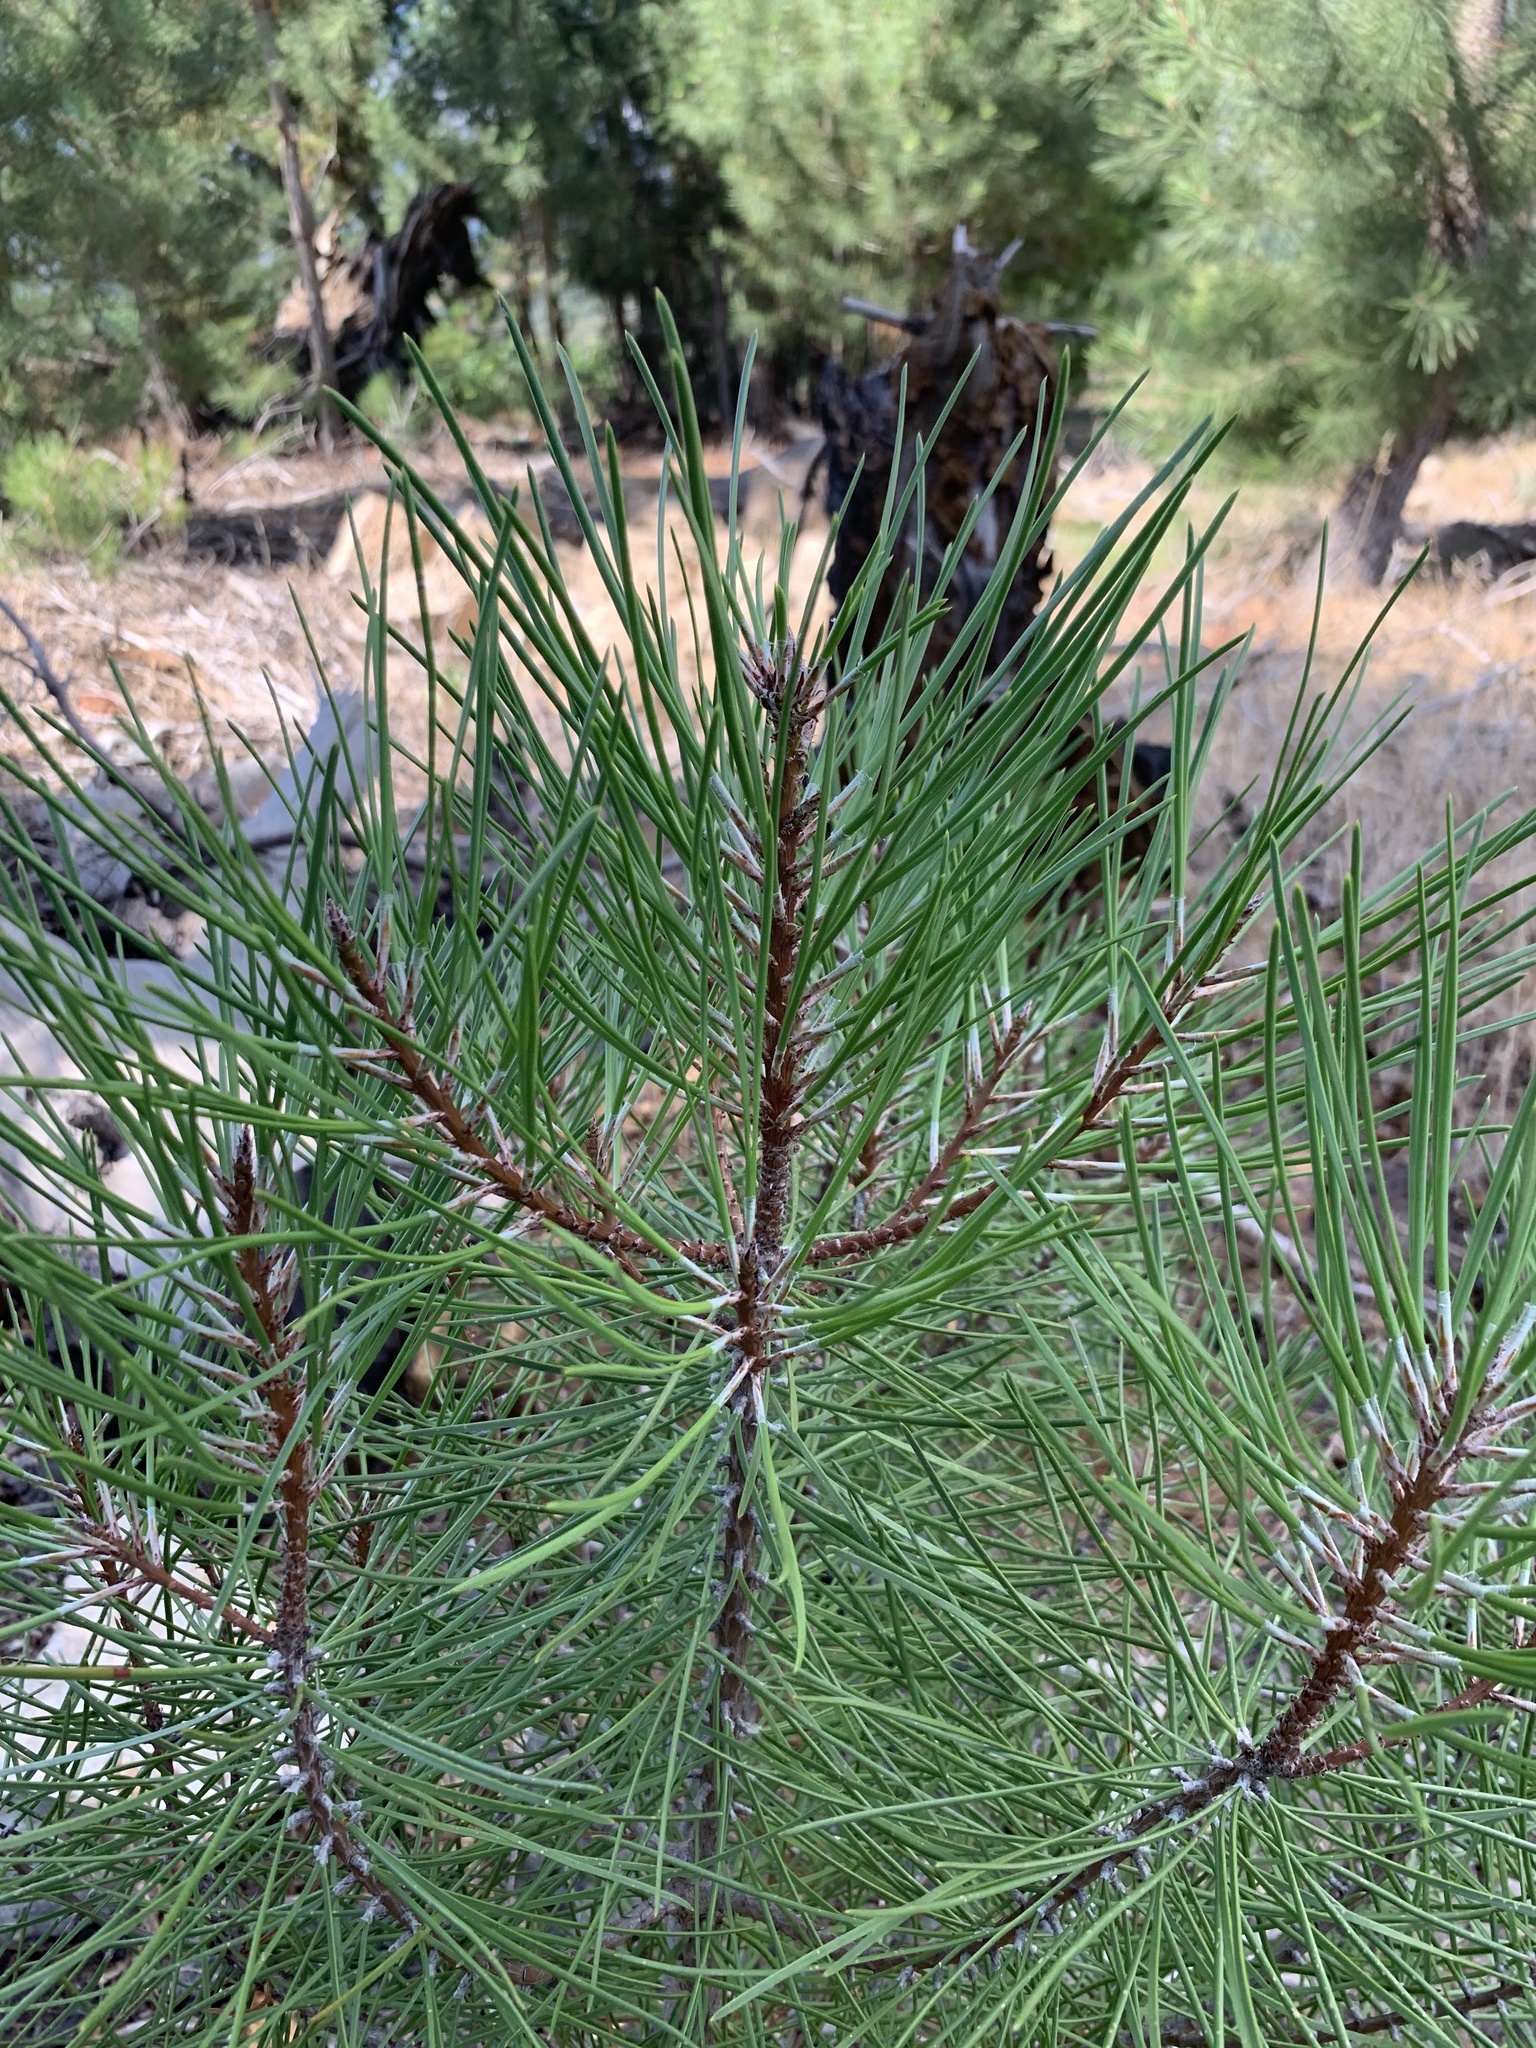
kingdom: Plantae
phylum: Tracheophyta
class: Pinopsida
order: Pinales
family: Pinaceae
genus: Pinus
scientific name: Pinus pinaster
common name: Maritime pine
